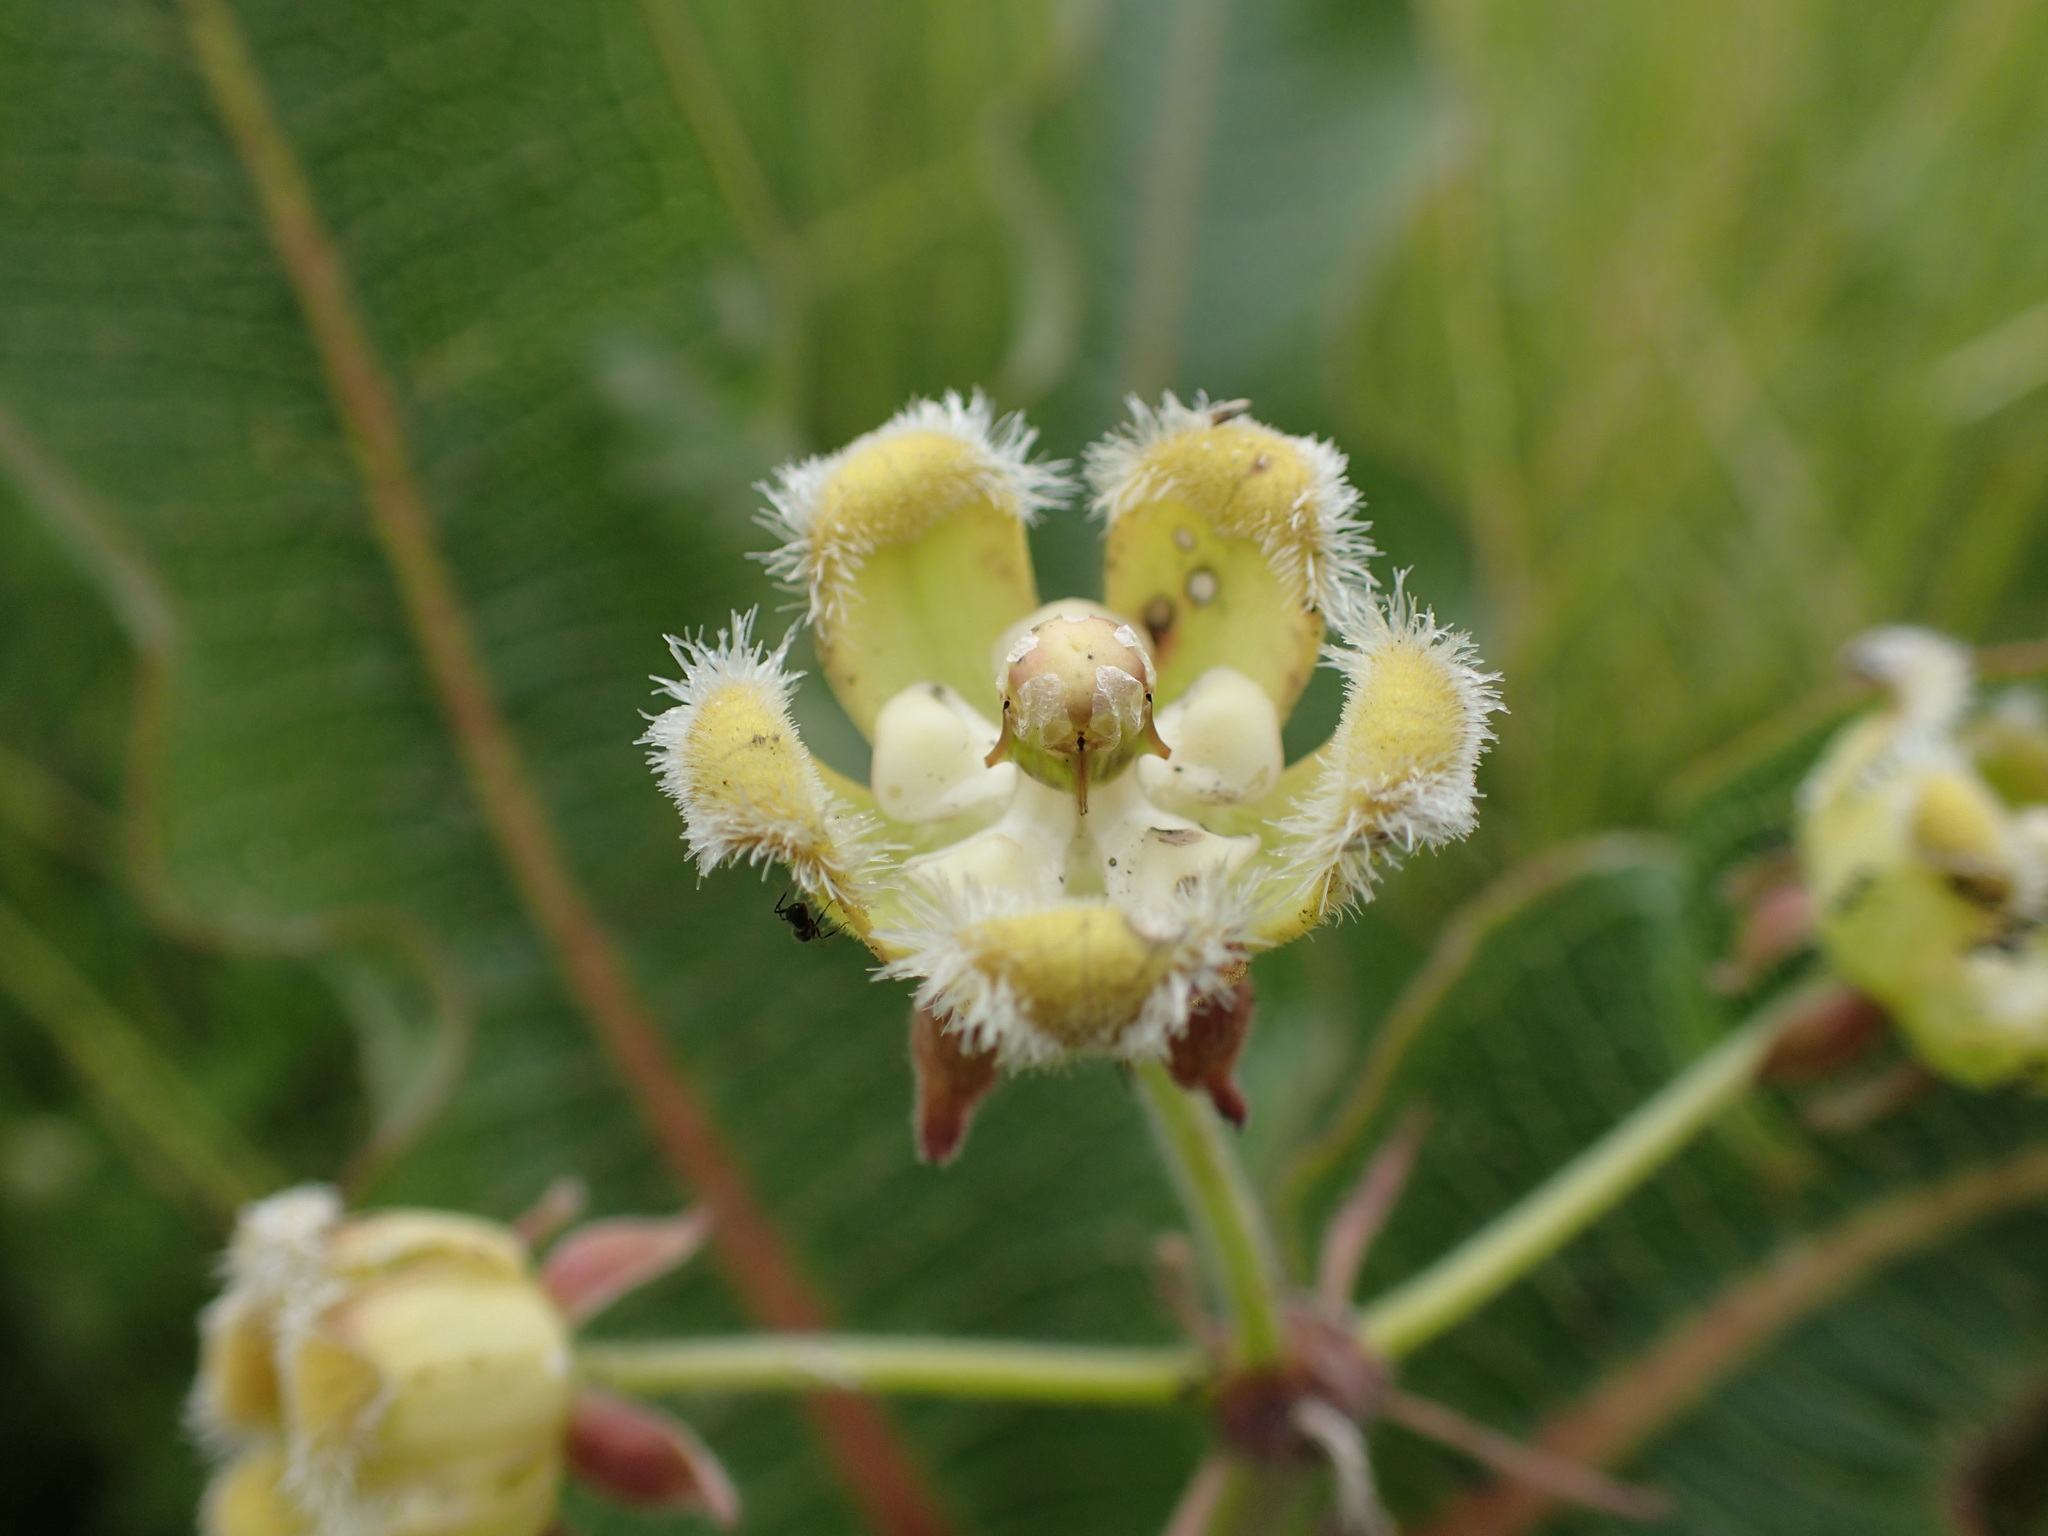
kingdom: Plantae
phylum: Tracheophyta
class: Magnoliopsida
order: Gentianales
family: Apocynaceae
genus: Xysmalobium
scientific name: Xysmalobium undulatum
